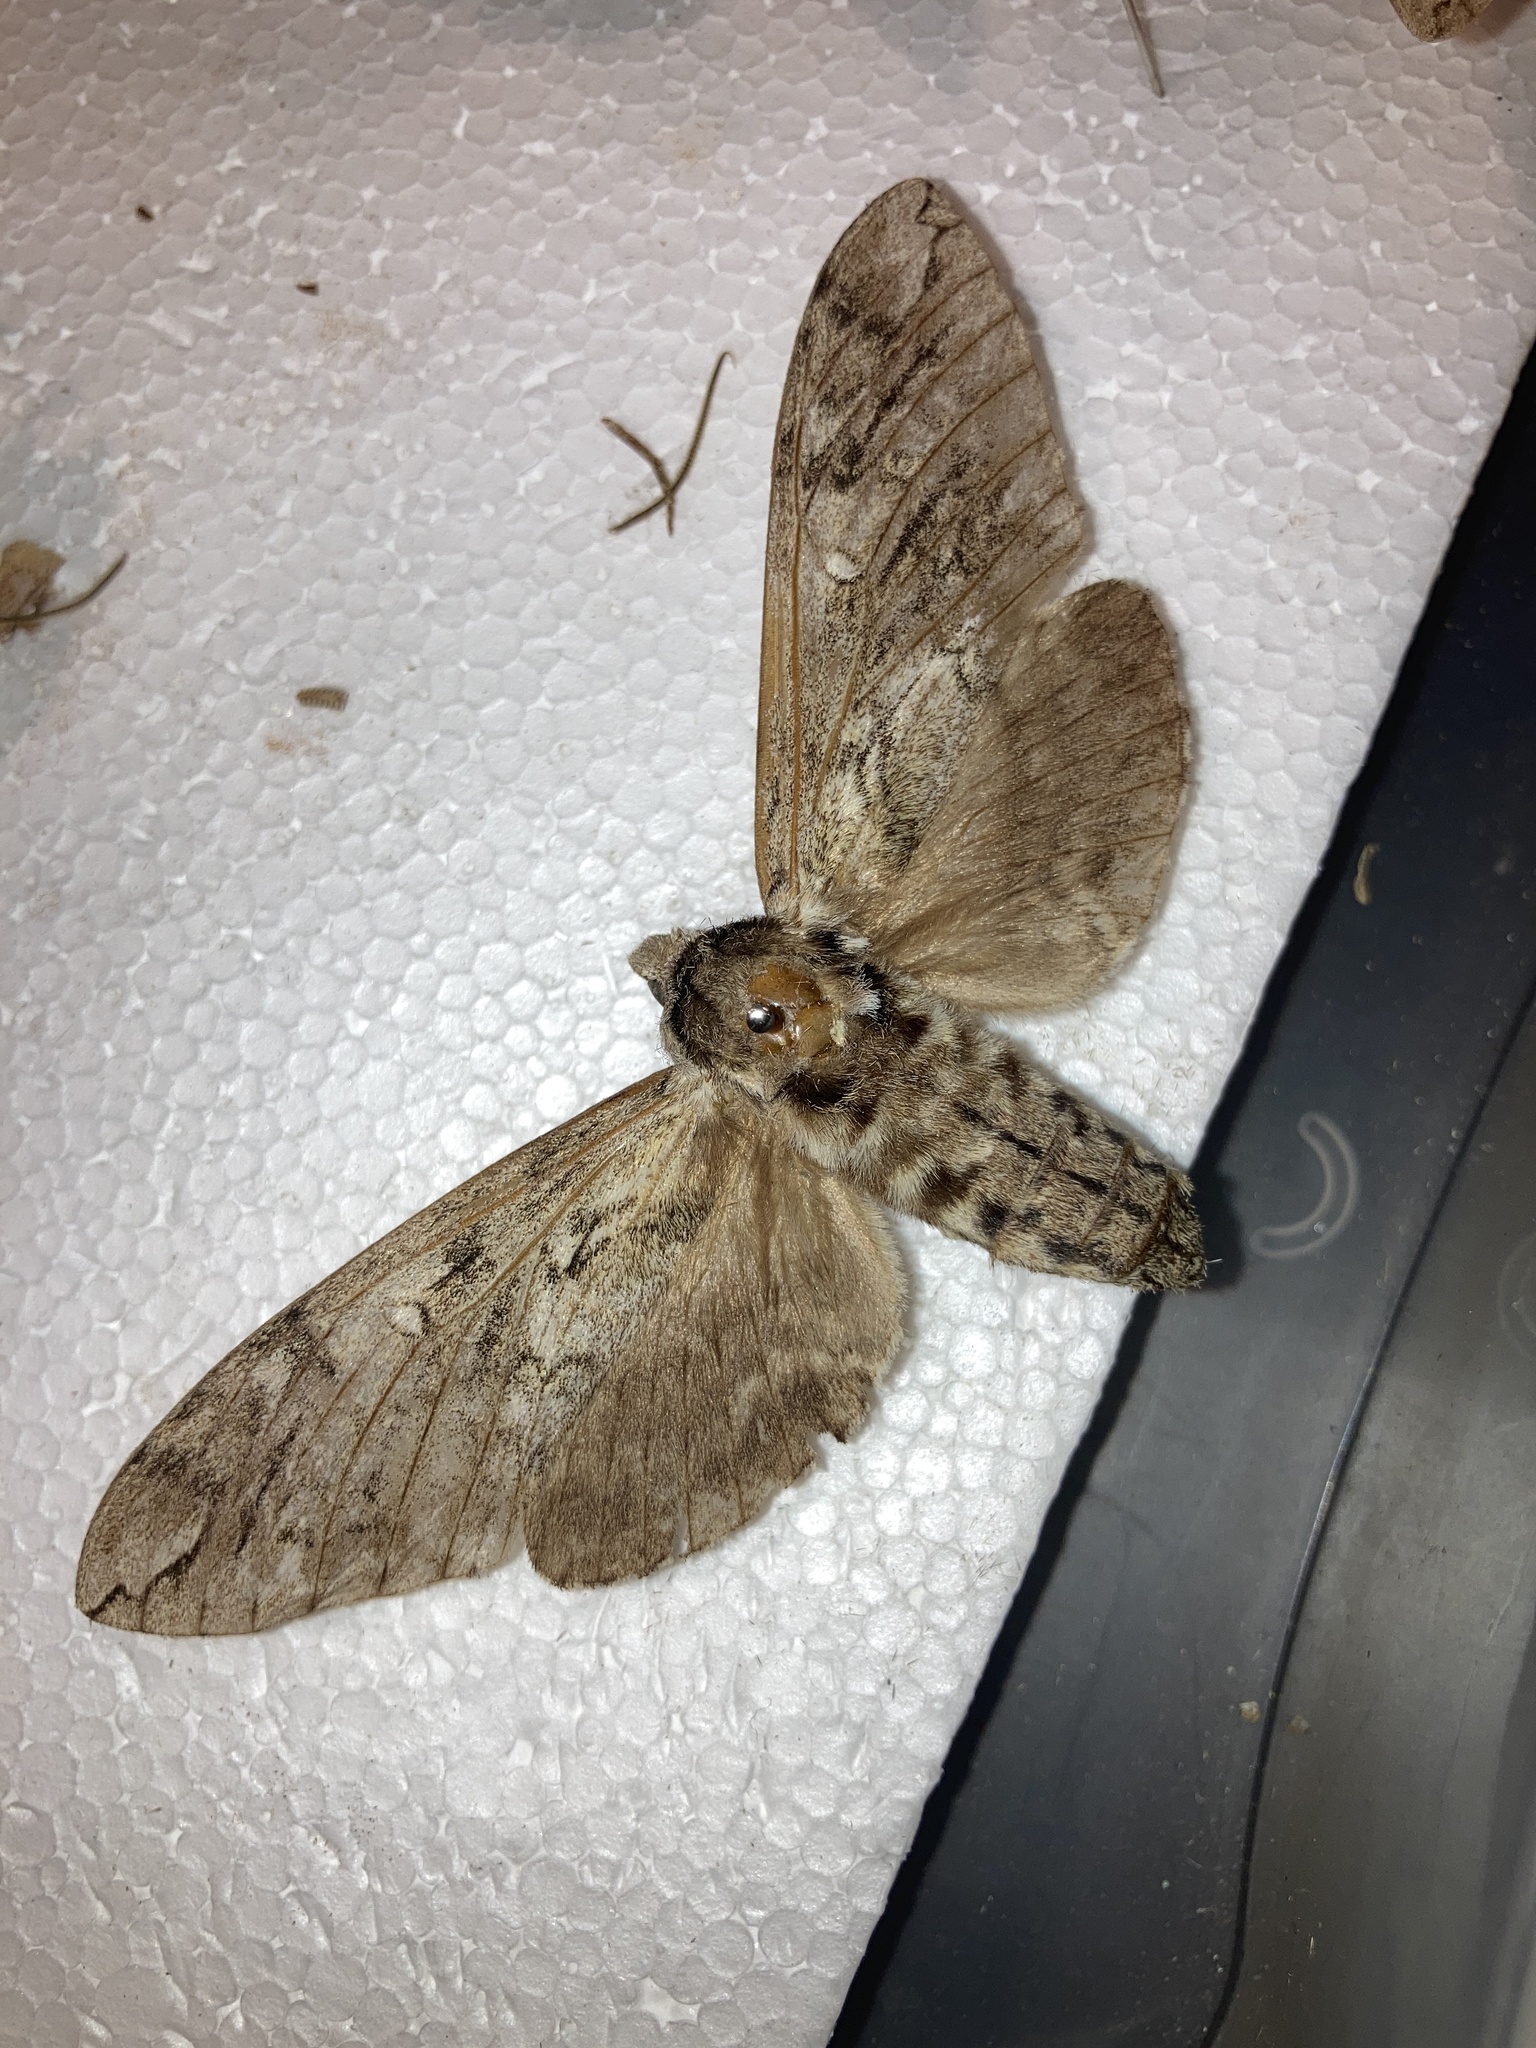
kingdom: Animalia
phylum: Arthropoda
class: Insecta
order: Lepidoptera
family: Sphingidae
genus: Ceratomia
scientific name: Ceratomia undulosa
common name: Waved sphinx
